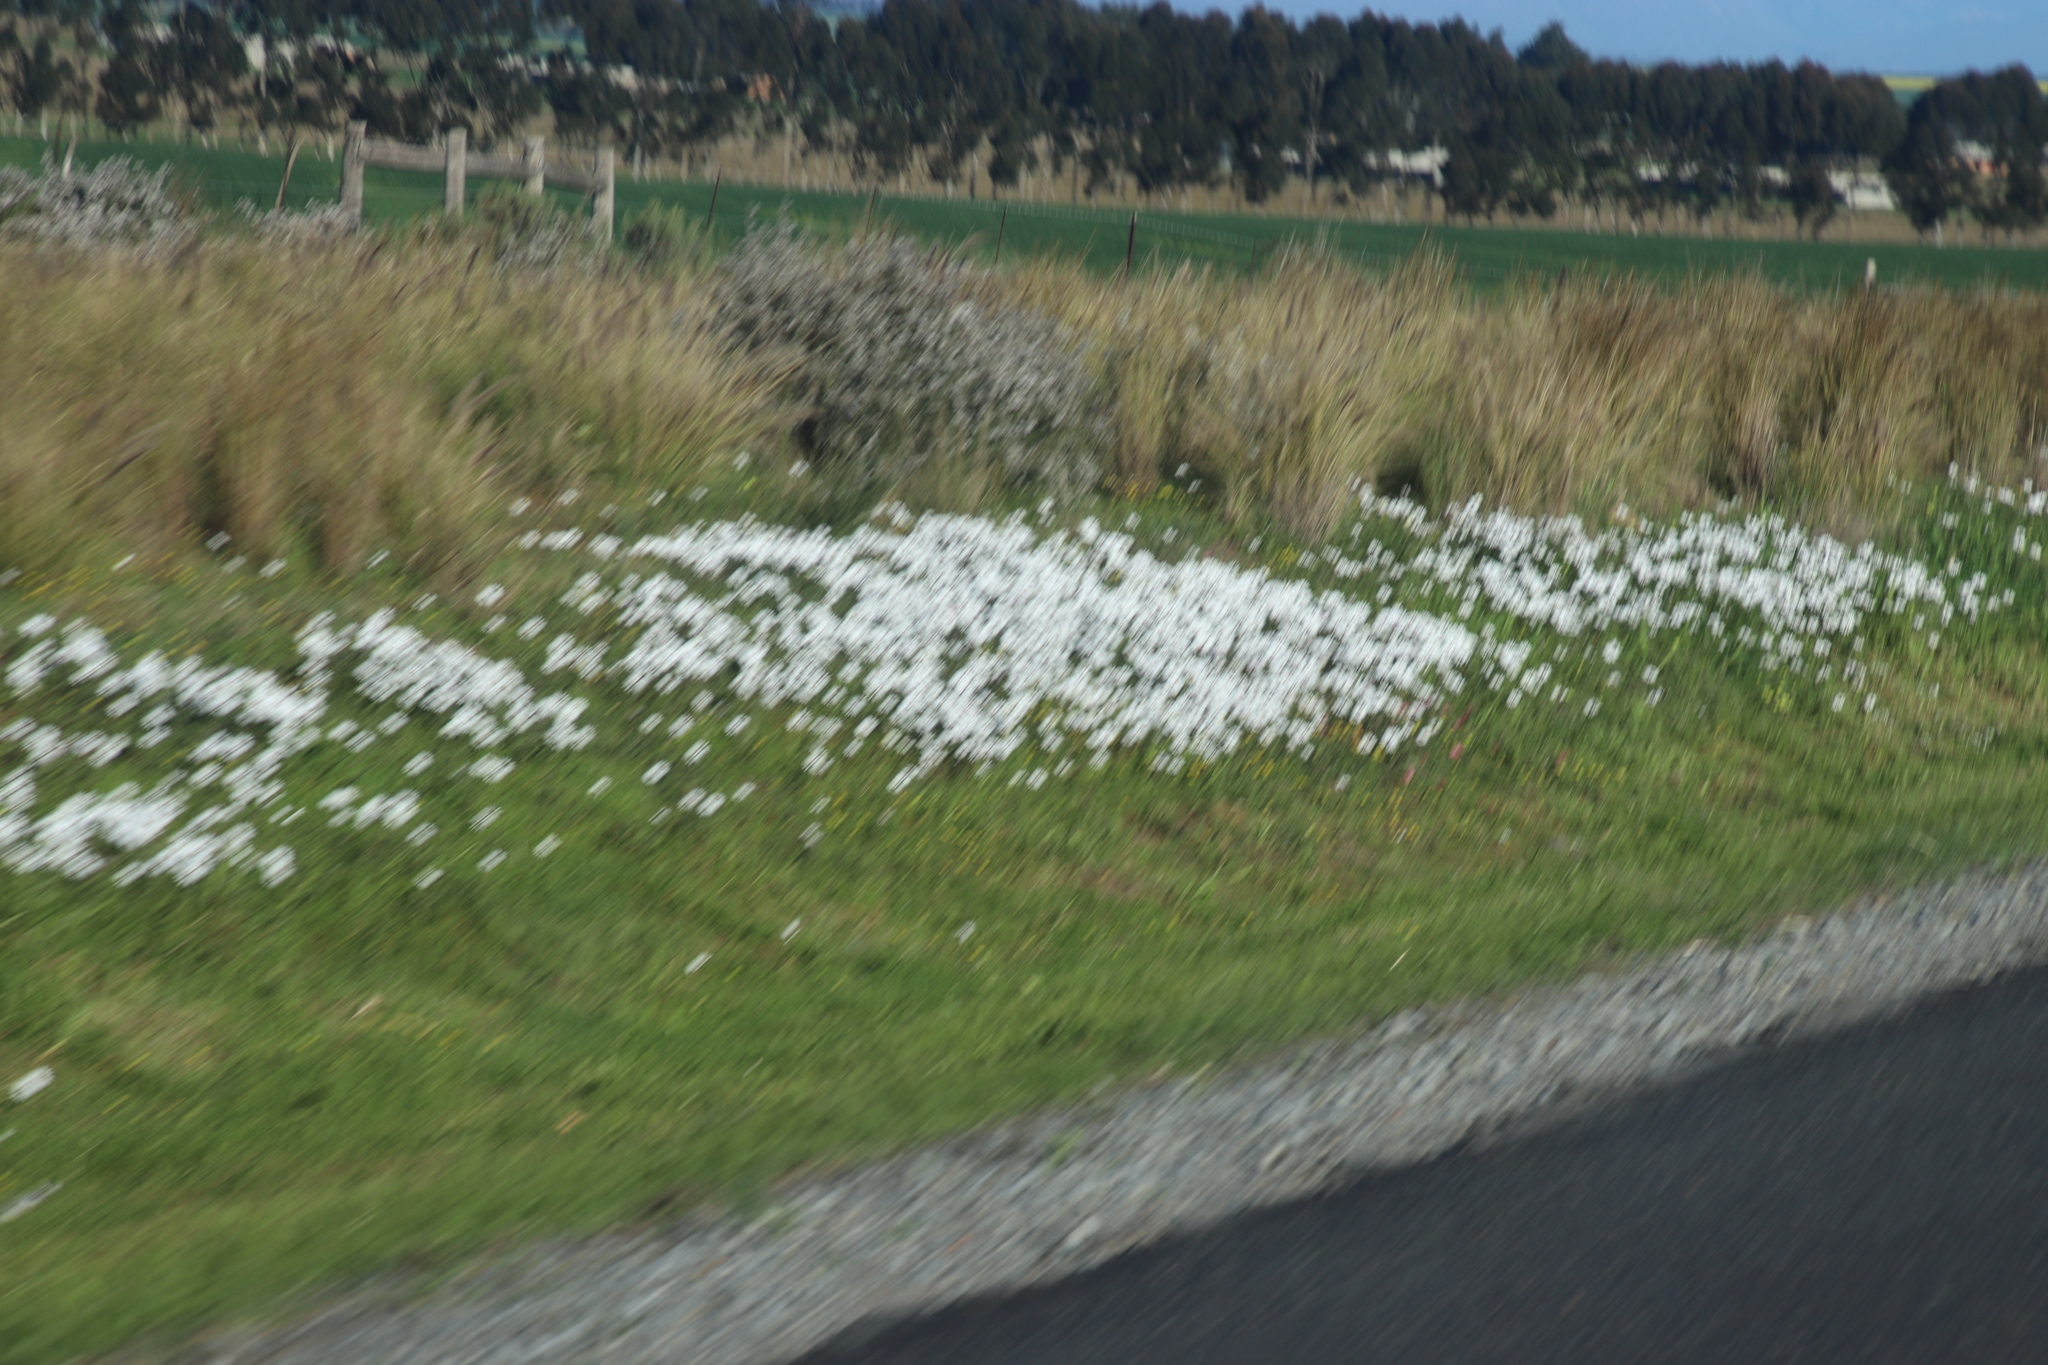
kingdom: Plantae
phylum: Tracheophyta
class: Magnoliopsida
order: Asterales
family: Asteraceae
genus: Dimorphotheca
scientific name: Dimorphotheca pluvialis
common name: Weather prophet
